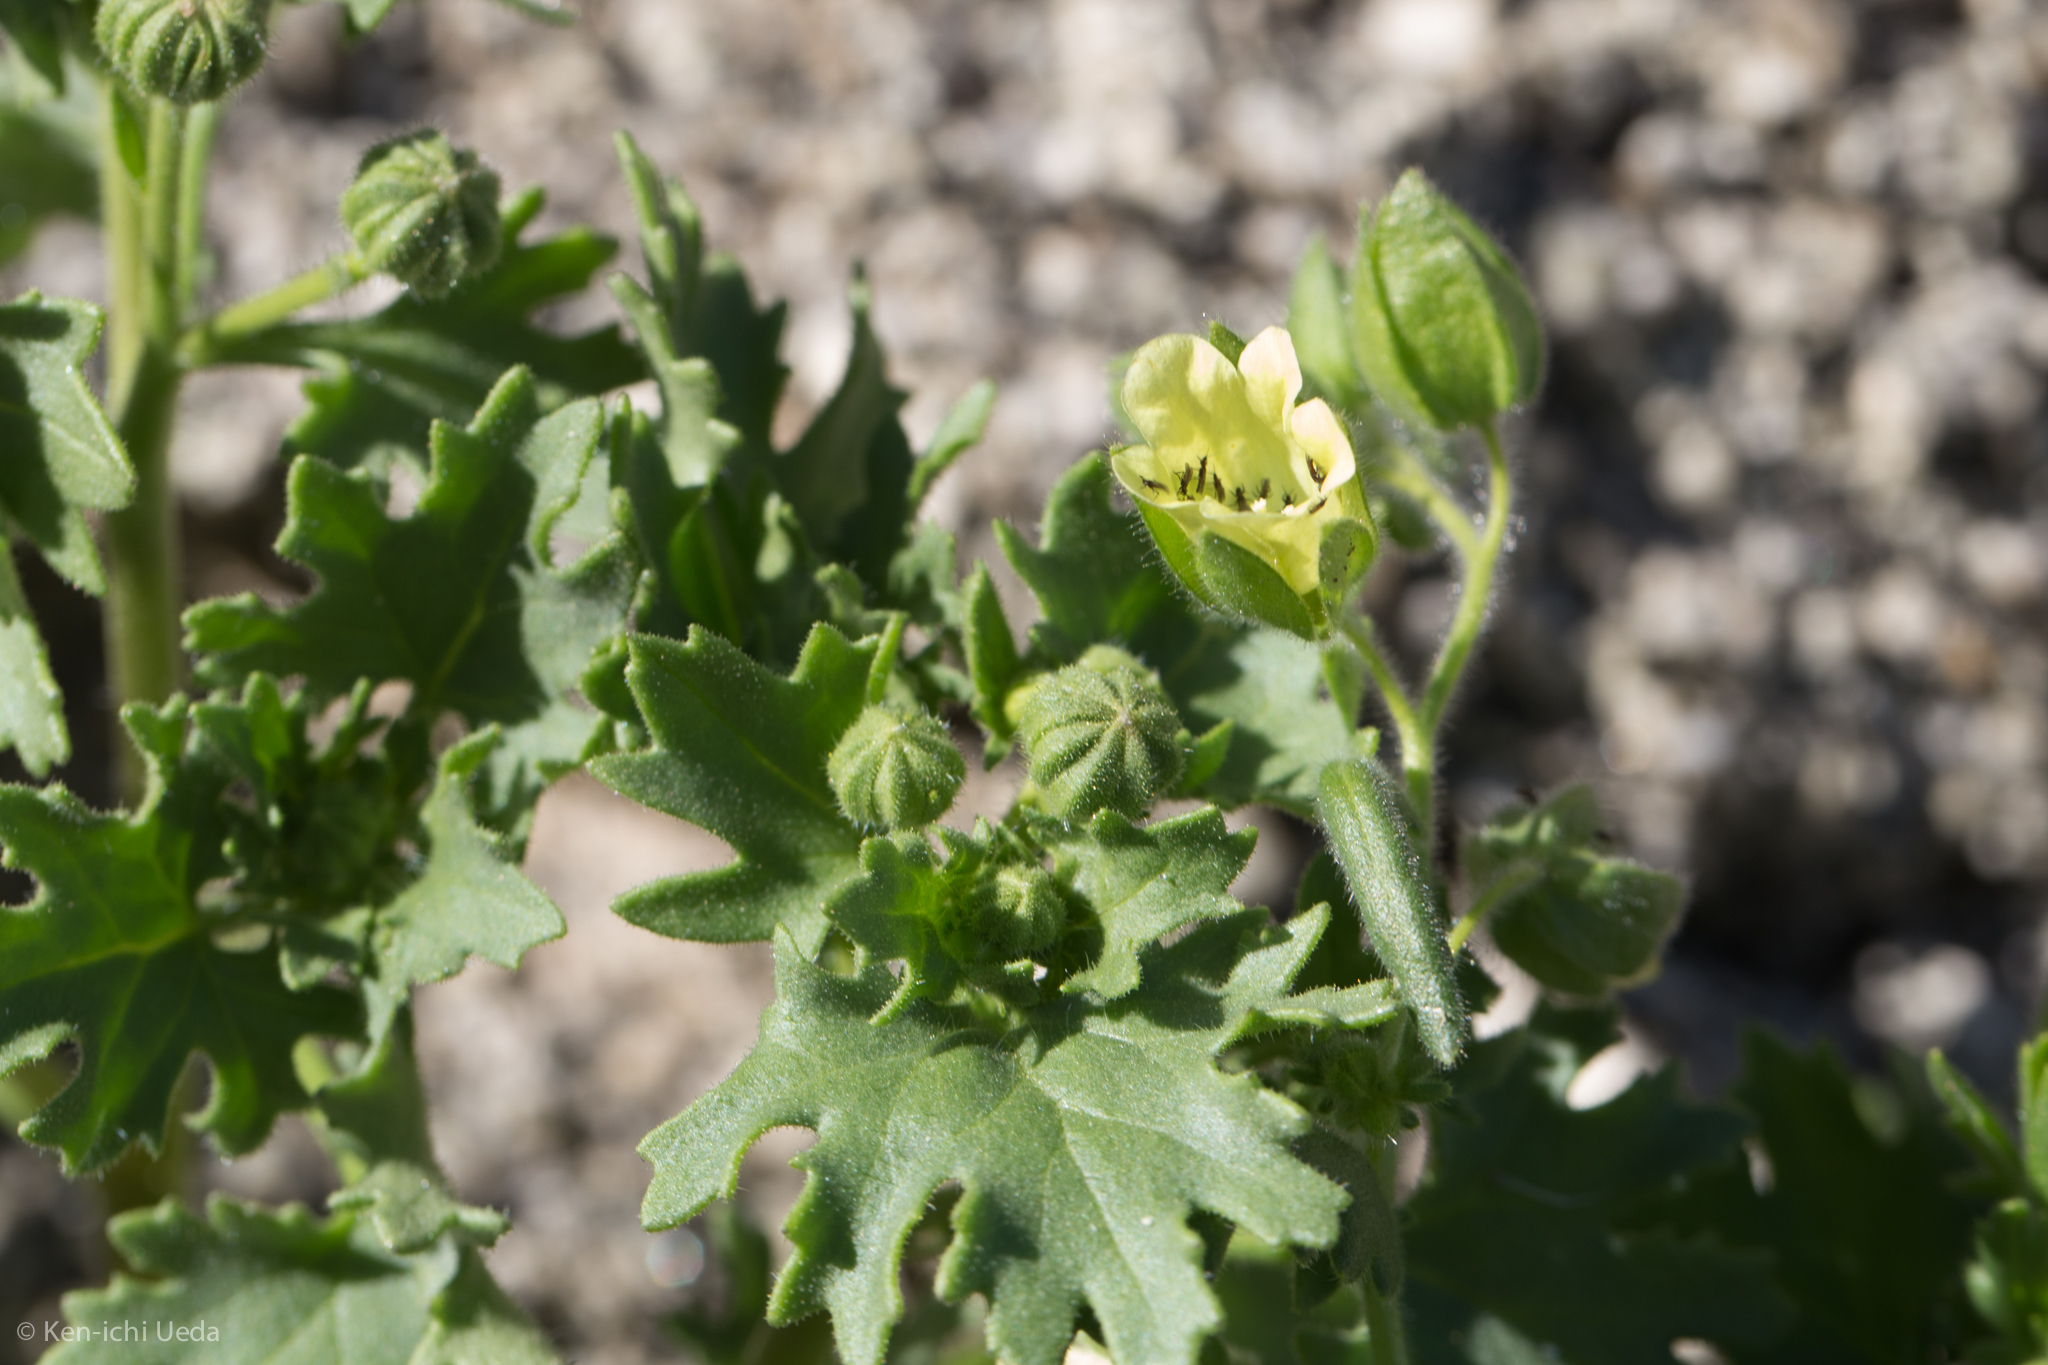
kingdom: Plantae
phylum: Tracheophyta
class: Magnoliopsida
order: Boraginales
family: Hydrophyllaceae
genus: Emmenanthe
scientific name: Emmenanthe penduliflora
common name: Whispering-bells
